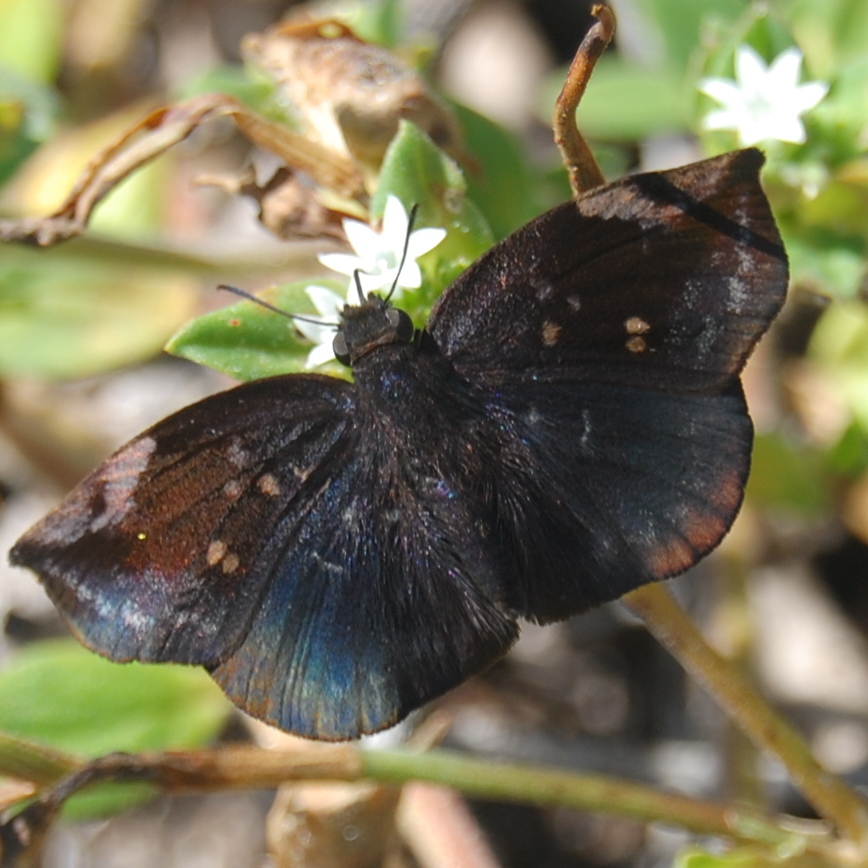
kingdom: Animalia
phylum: Arthropoda
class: Insecta
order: Lepidoptera
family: Hesperiidae
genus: Achlyodes
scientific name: Achlyodes thraso
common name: Sickle-winged skipper
